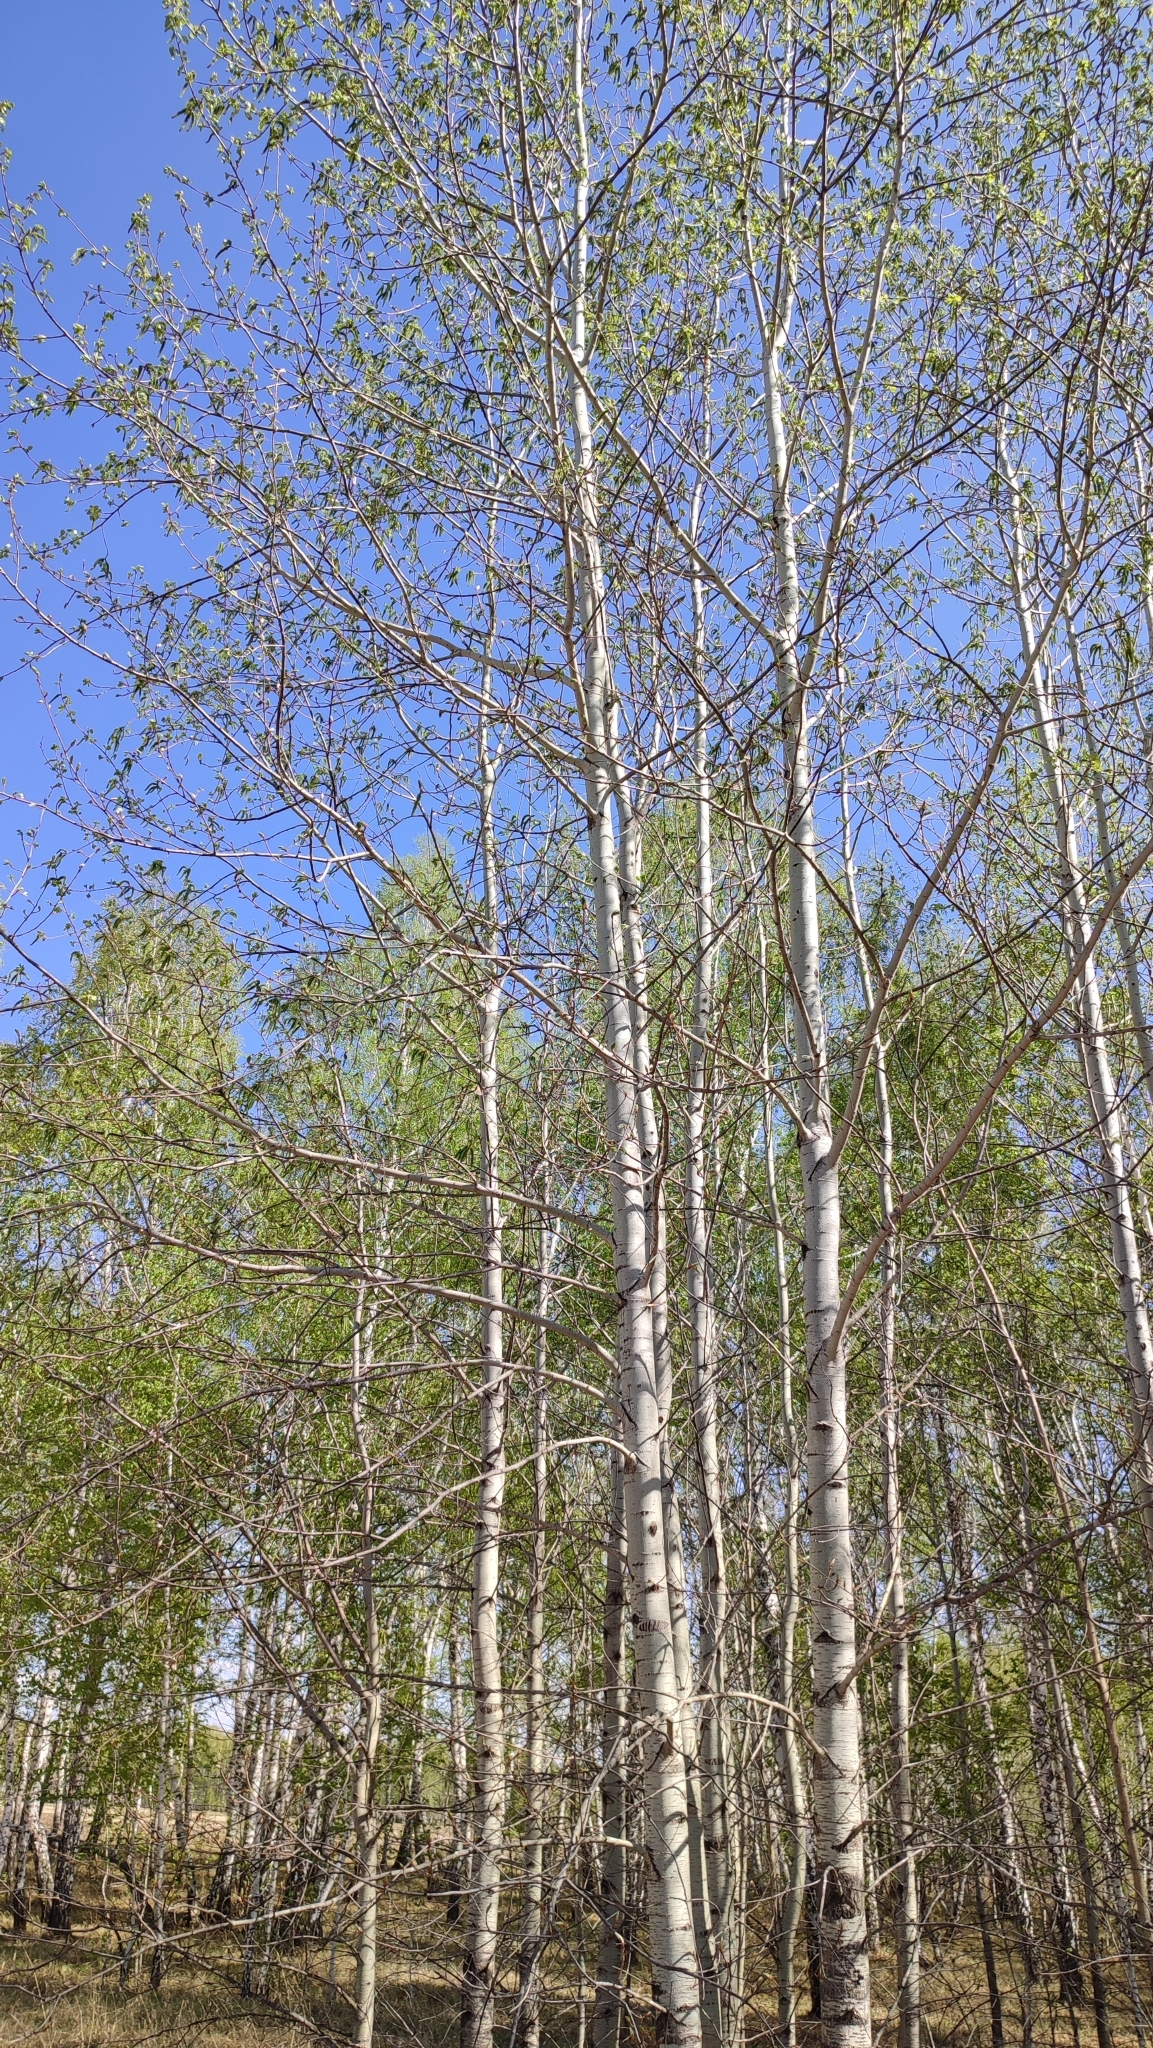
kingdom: Plantae
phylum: Tracheophyta
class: Magnoliopsida
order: Malpighiales
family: Salicaceae
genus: Populus
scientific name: Populus tremula
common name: European aspen
